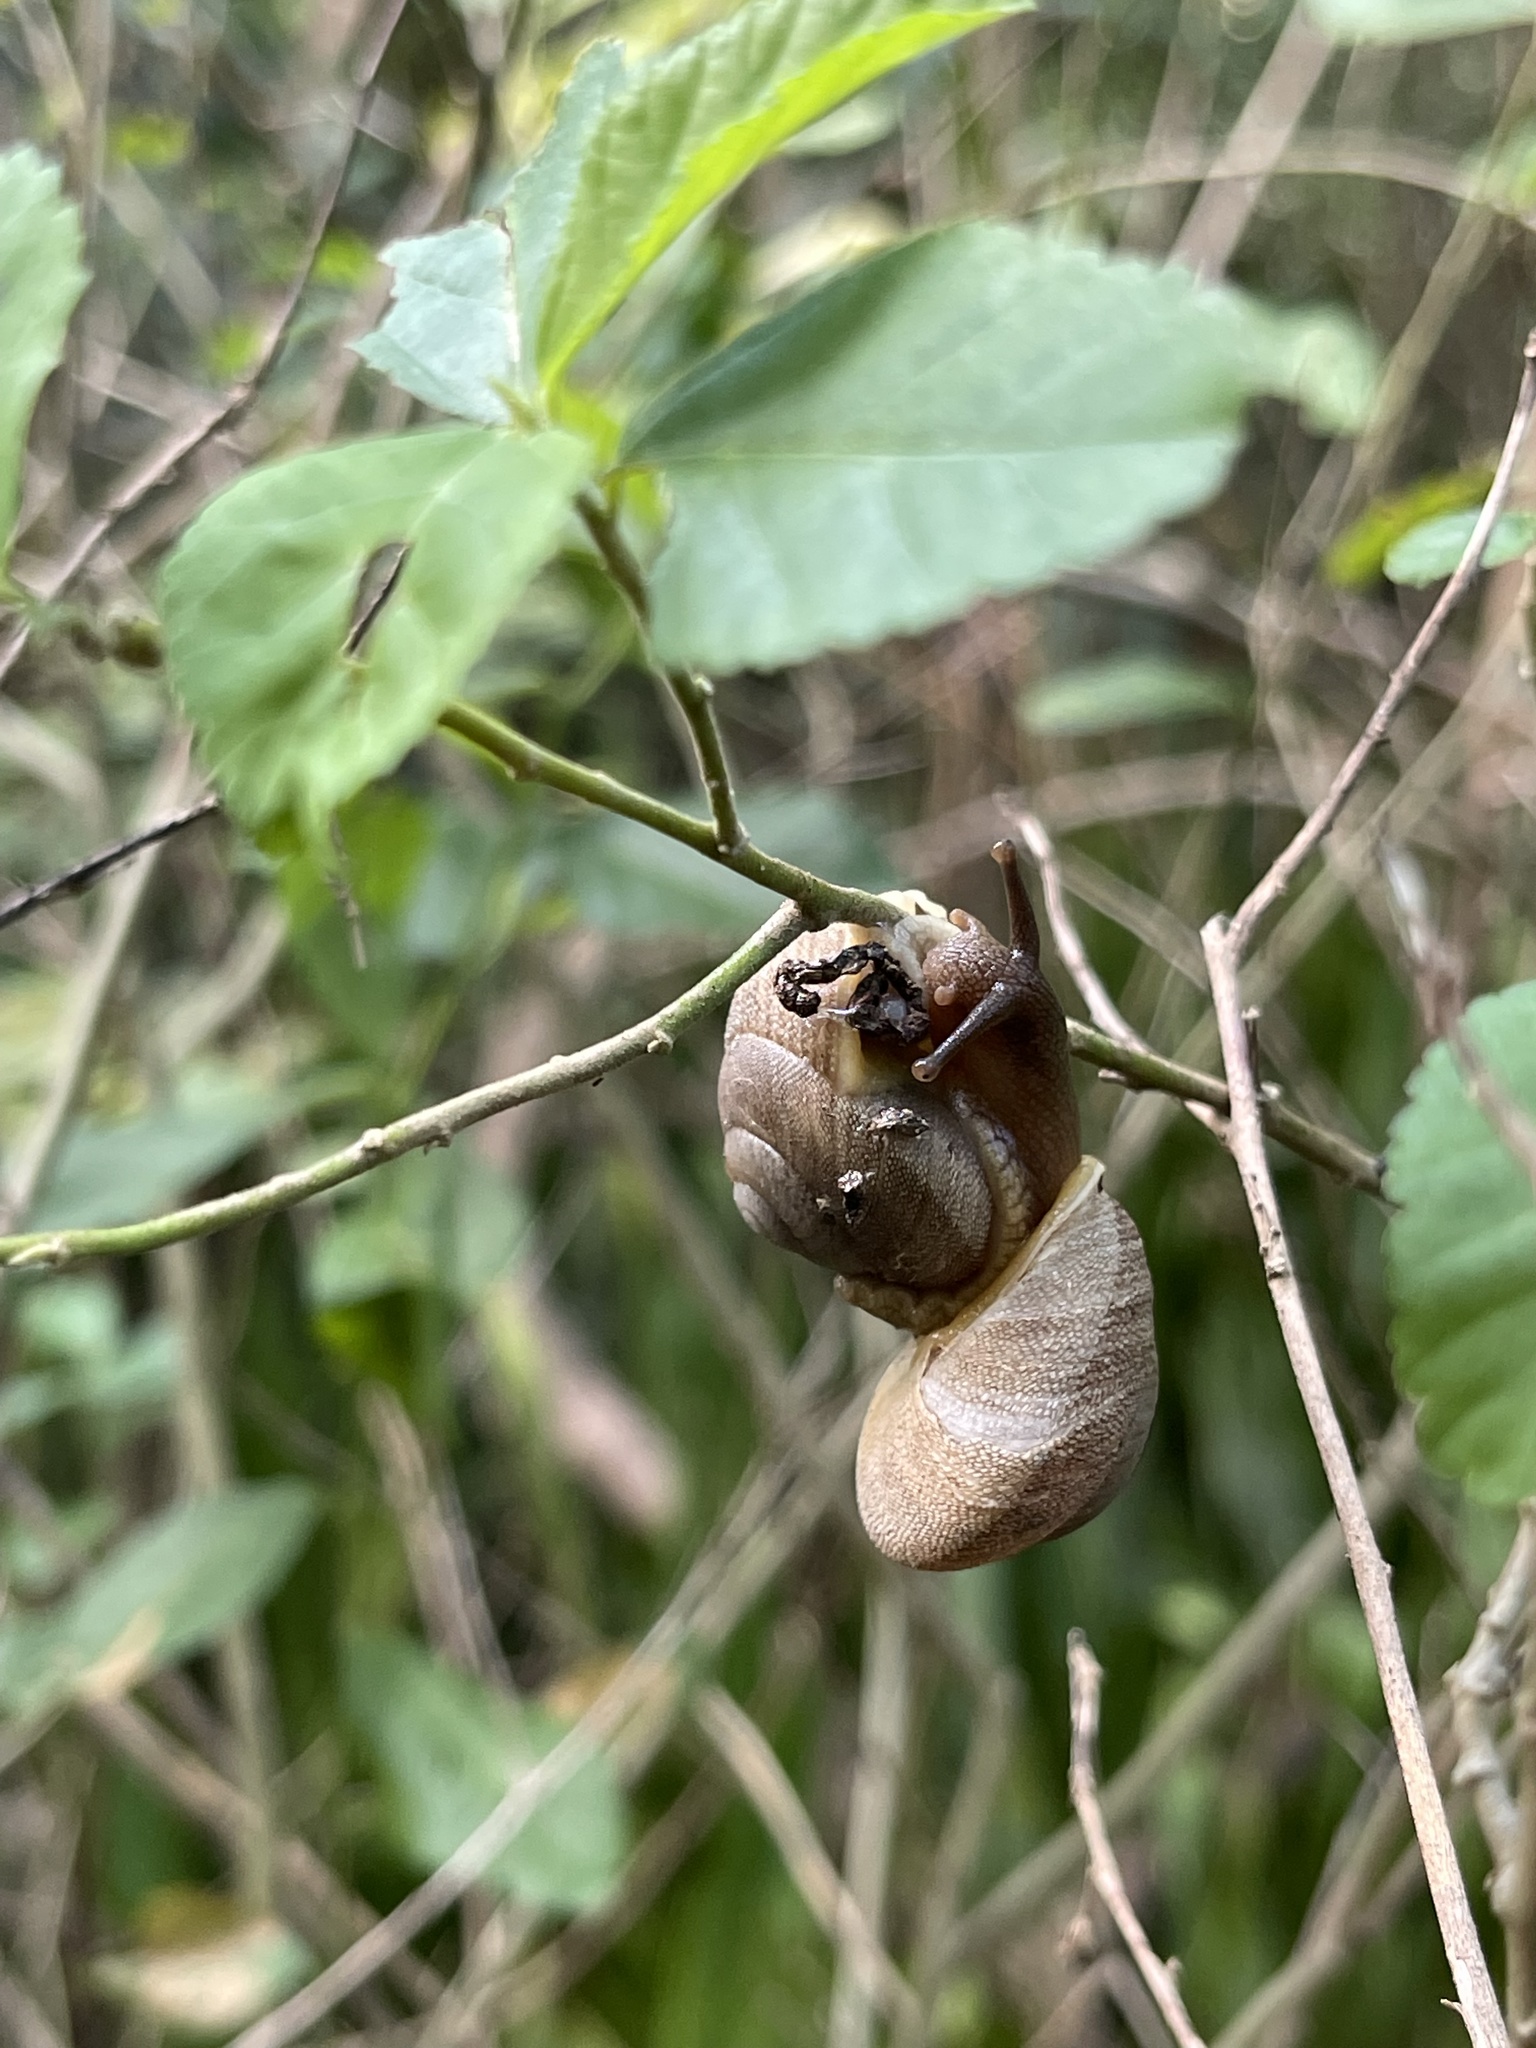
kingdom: Animalia
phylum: Mollusca
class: Gastropoda
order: Stylommatophora
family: Sagdidae
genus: Granodomus
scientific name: Granodomus lima
